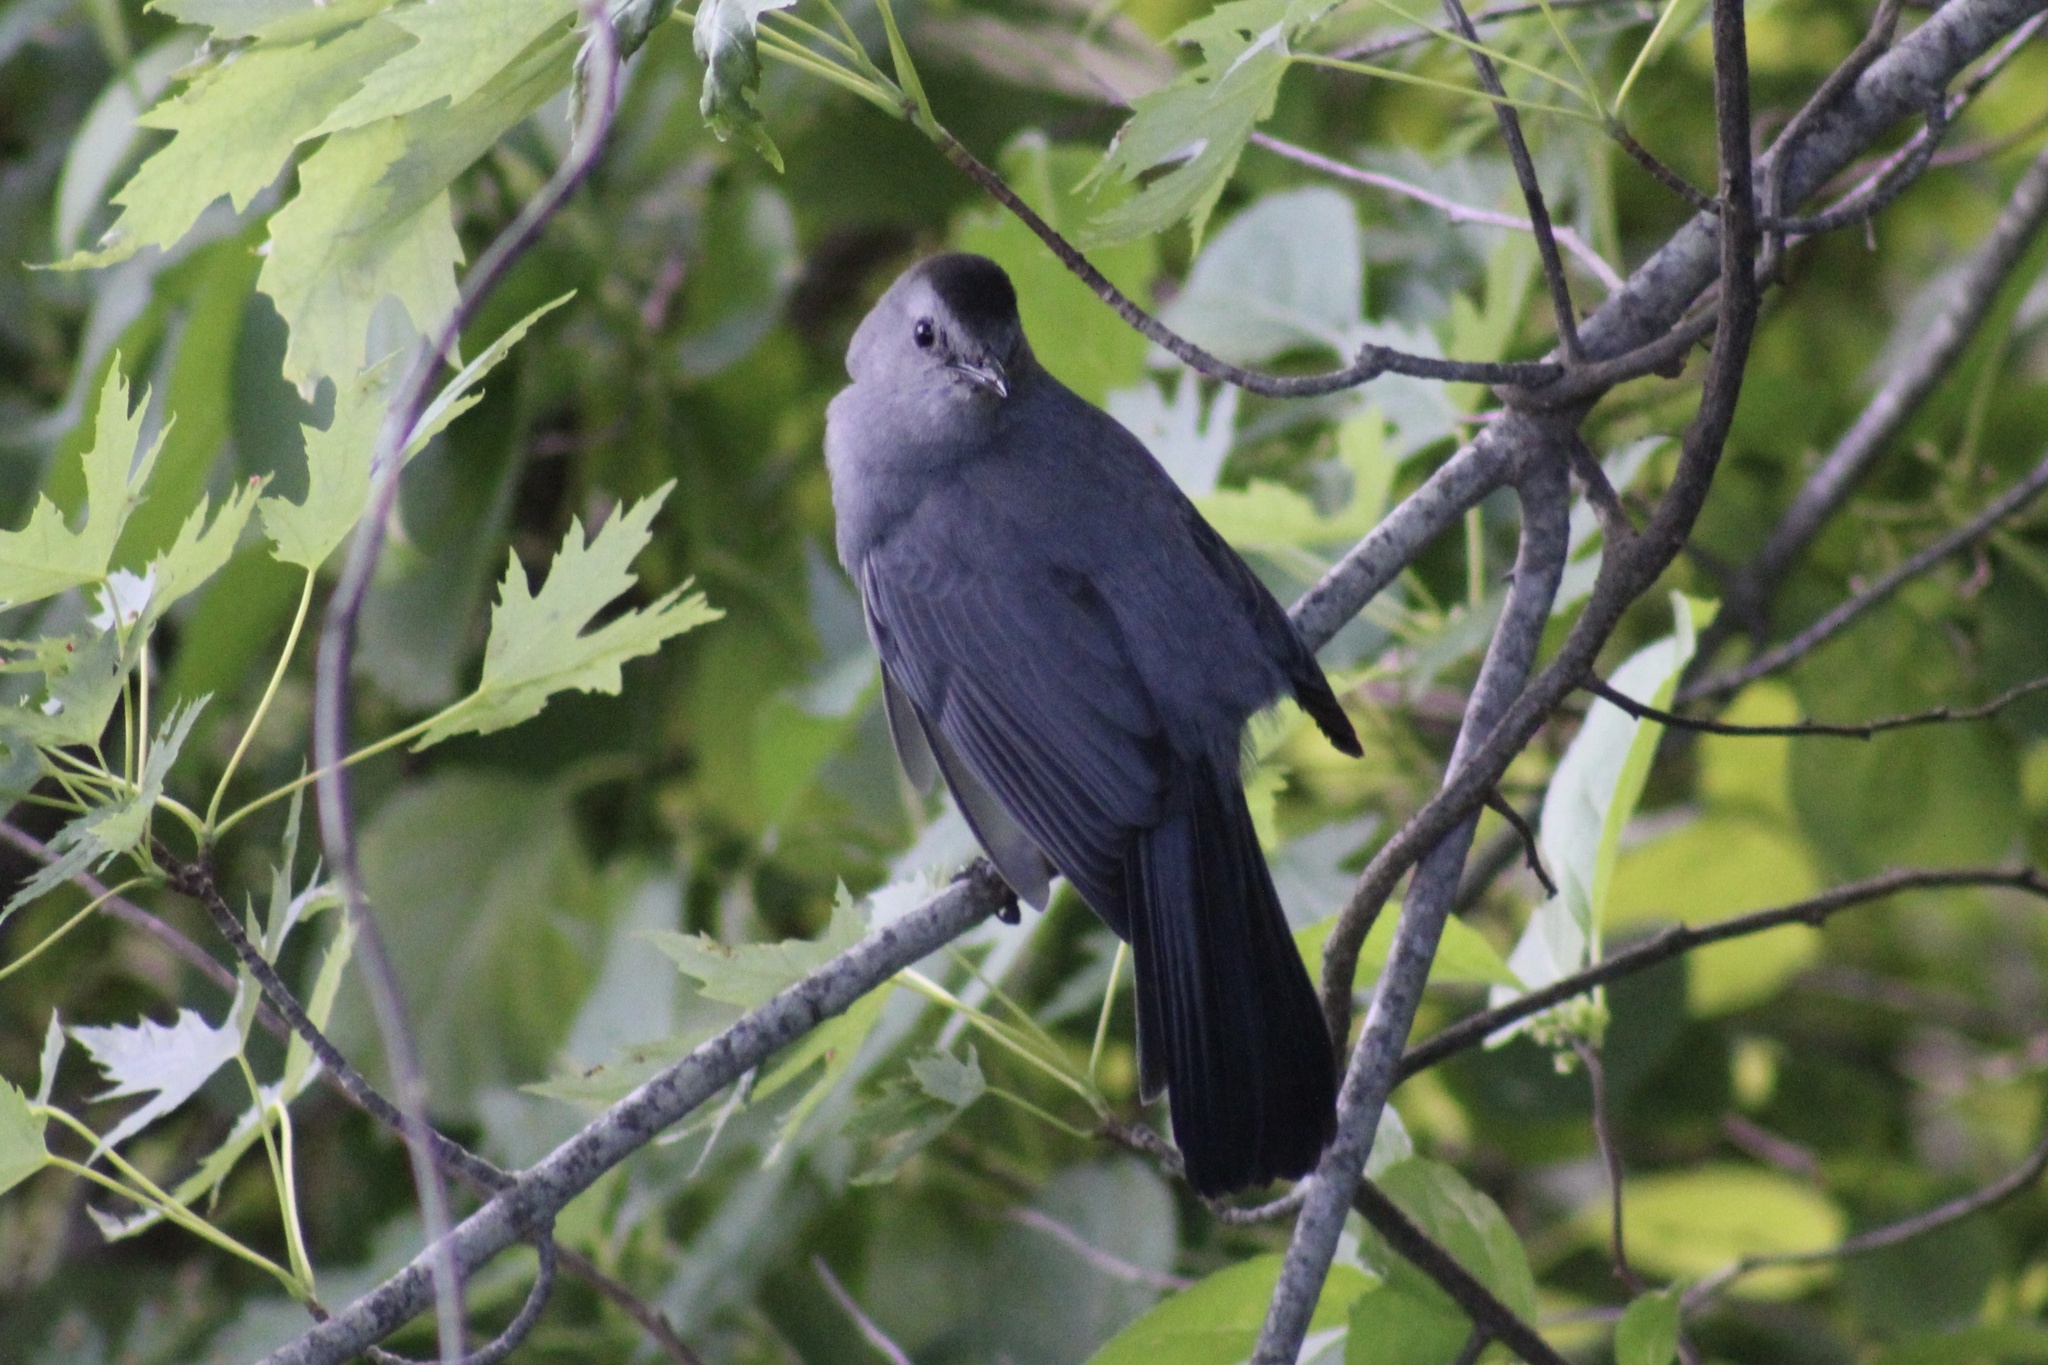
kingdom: Animalia
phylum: Chordata
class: Aves
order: Passeriformes
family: Mimidae
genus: Dumetella
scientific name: Dumetella carolinensis
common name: Gray catbird
